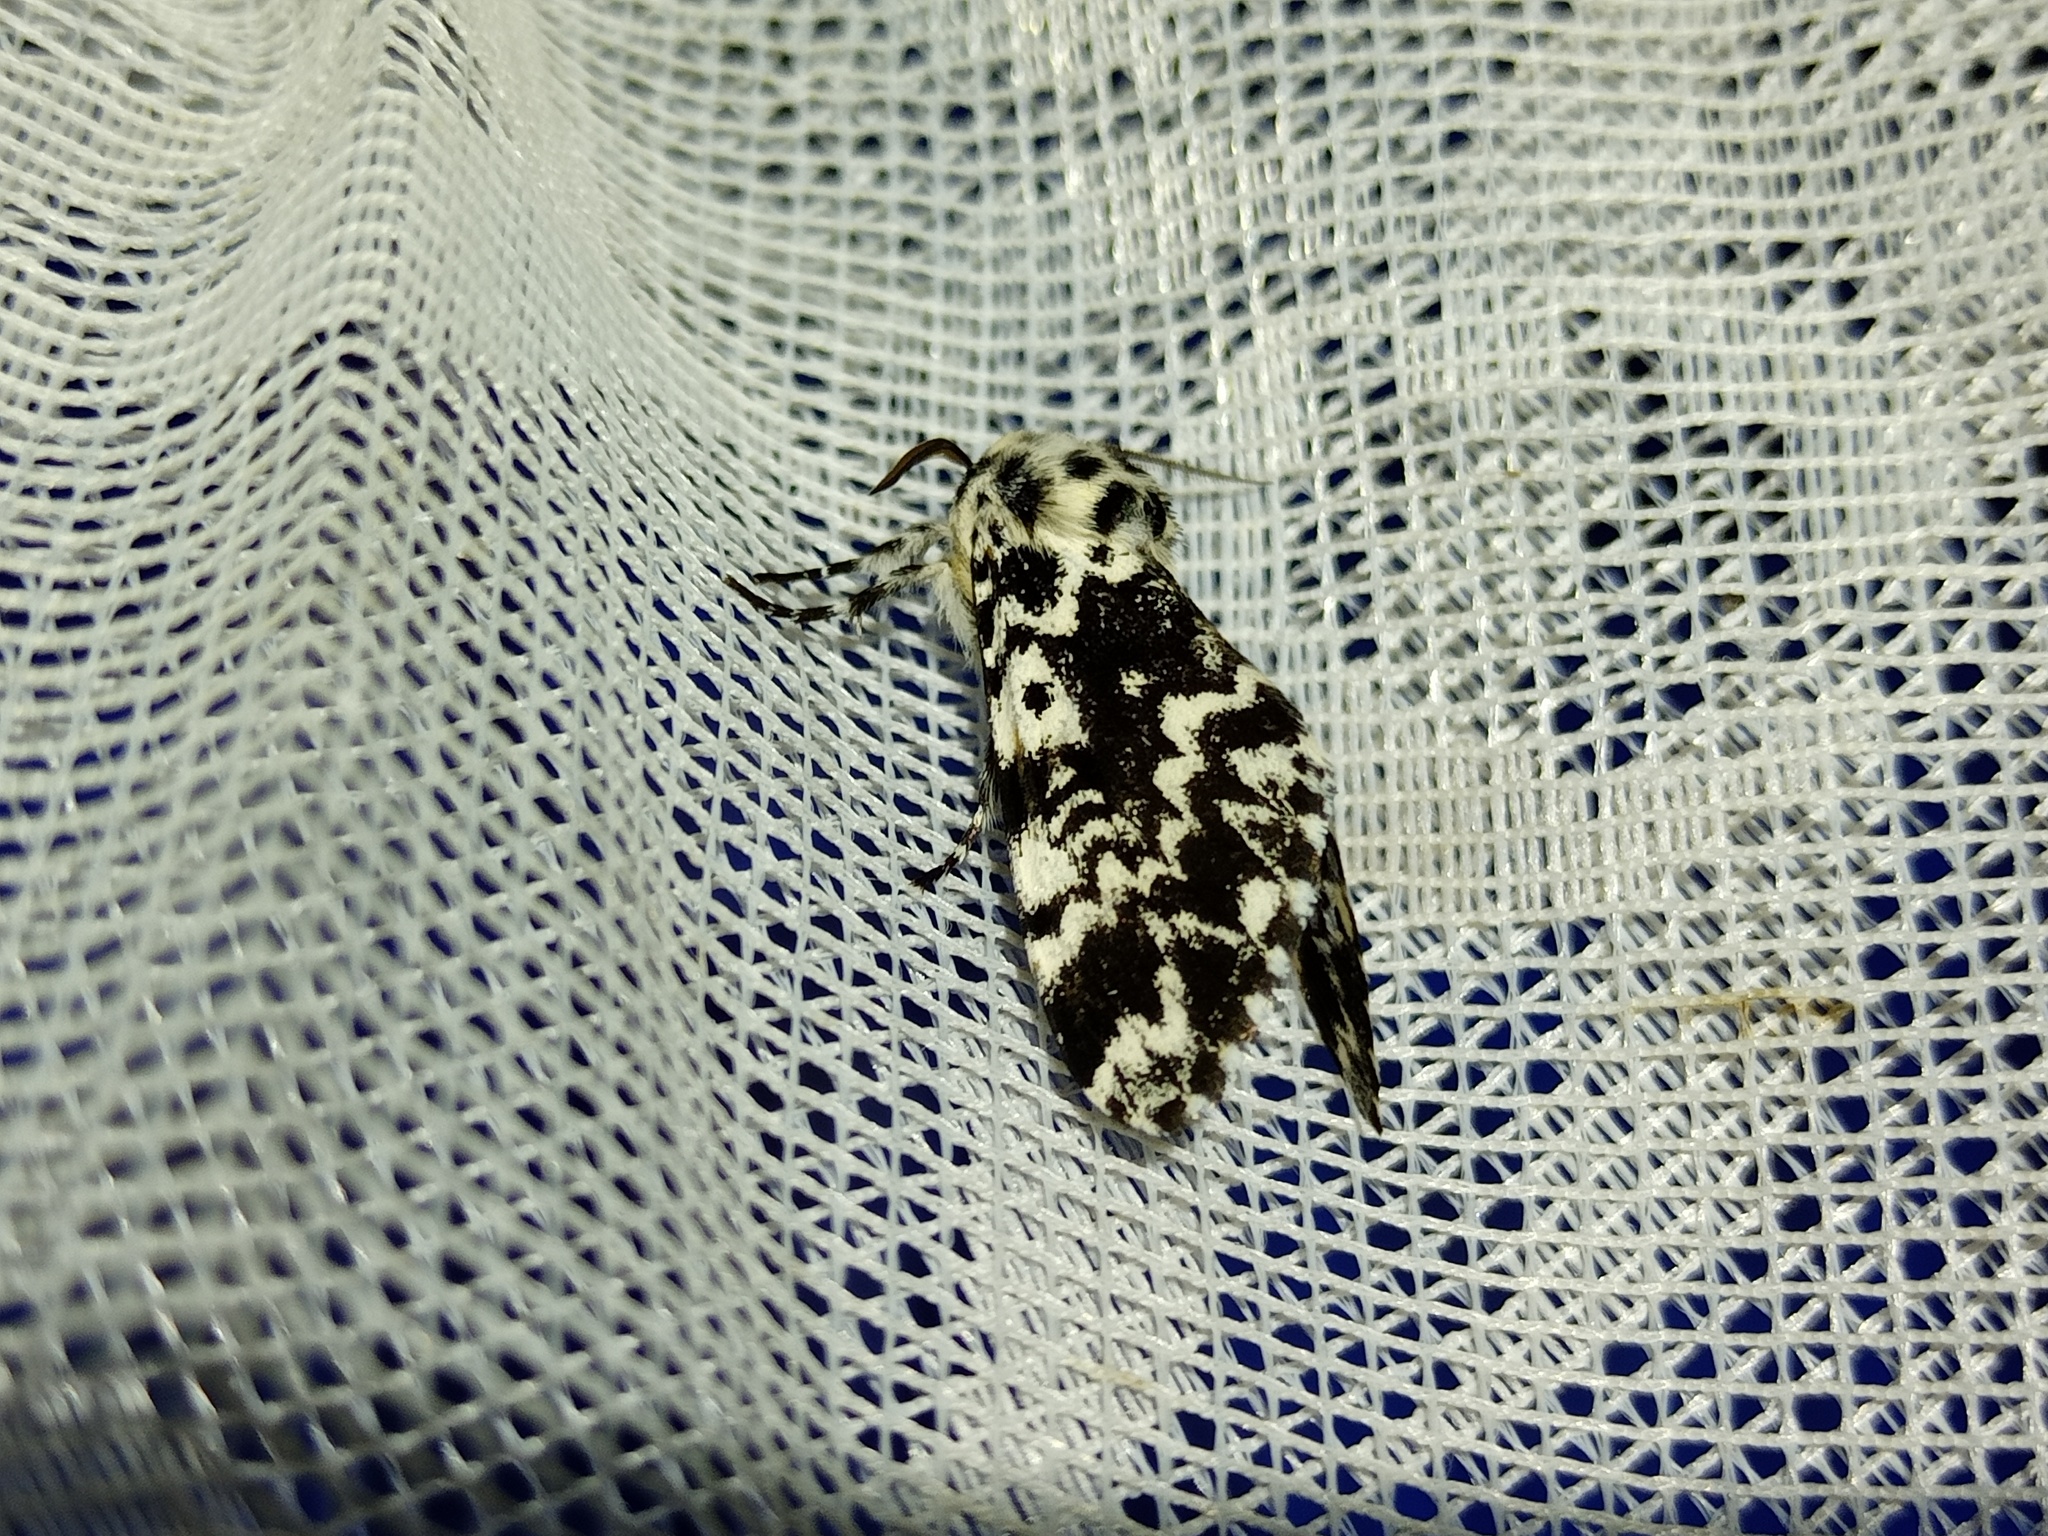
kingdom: Animalia
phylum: Arthropoda
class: Insecta
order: Lepidoptera
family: Noctuidae
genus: Panthea
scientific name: Panthea coenobita
